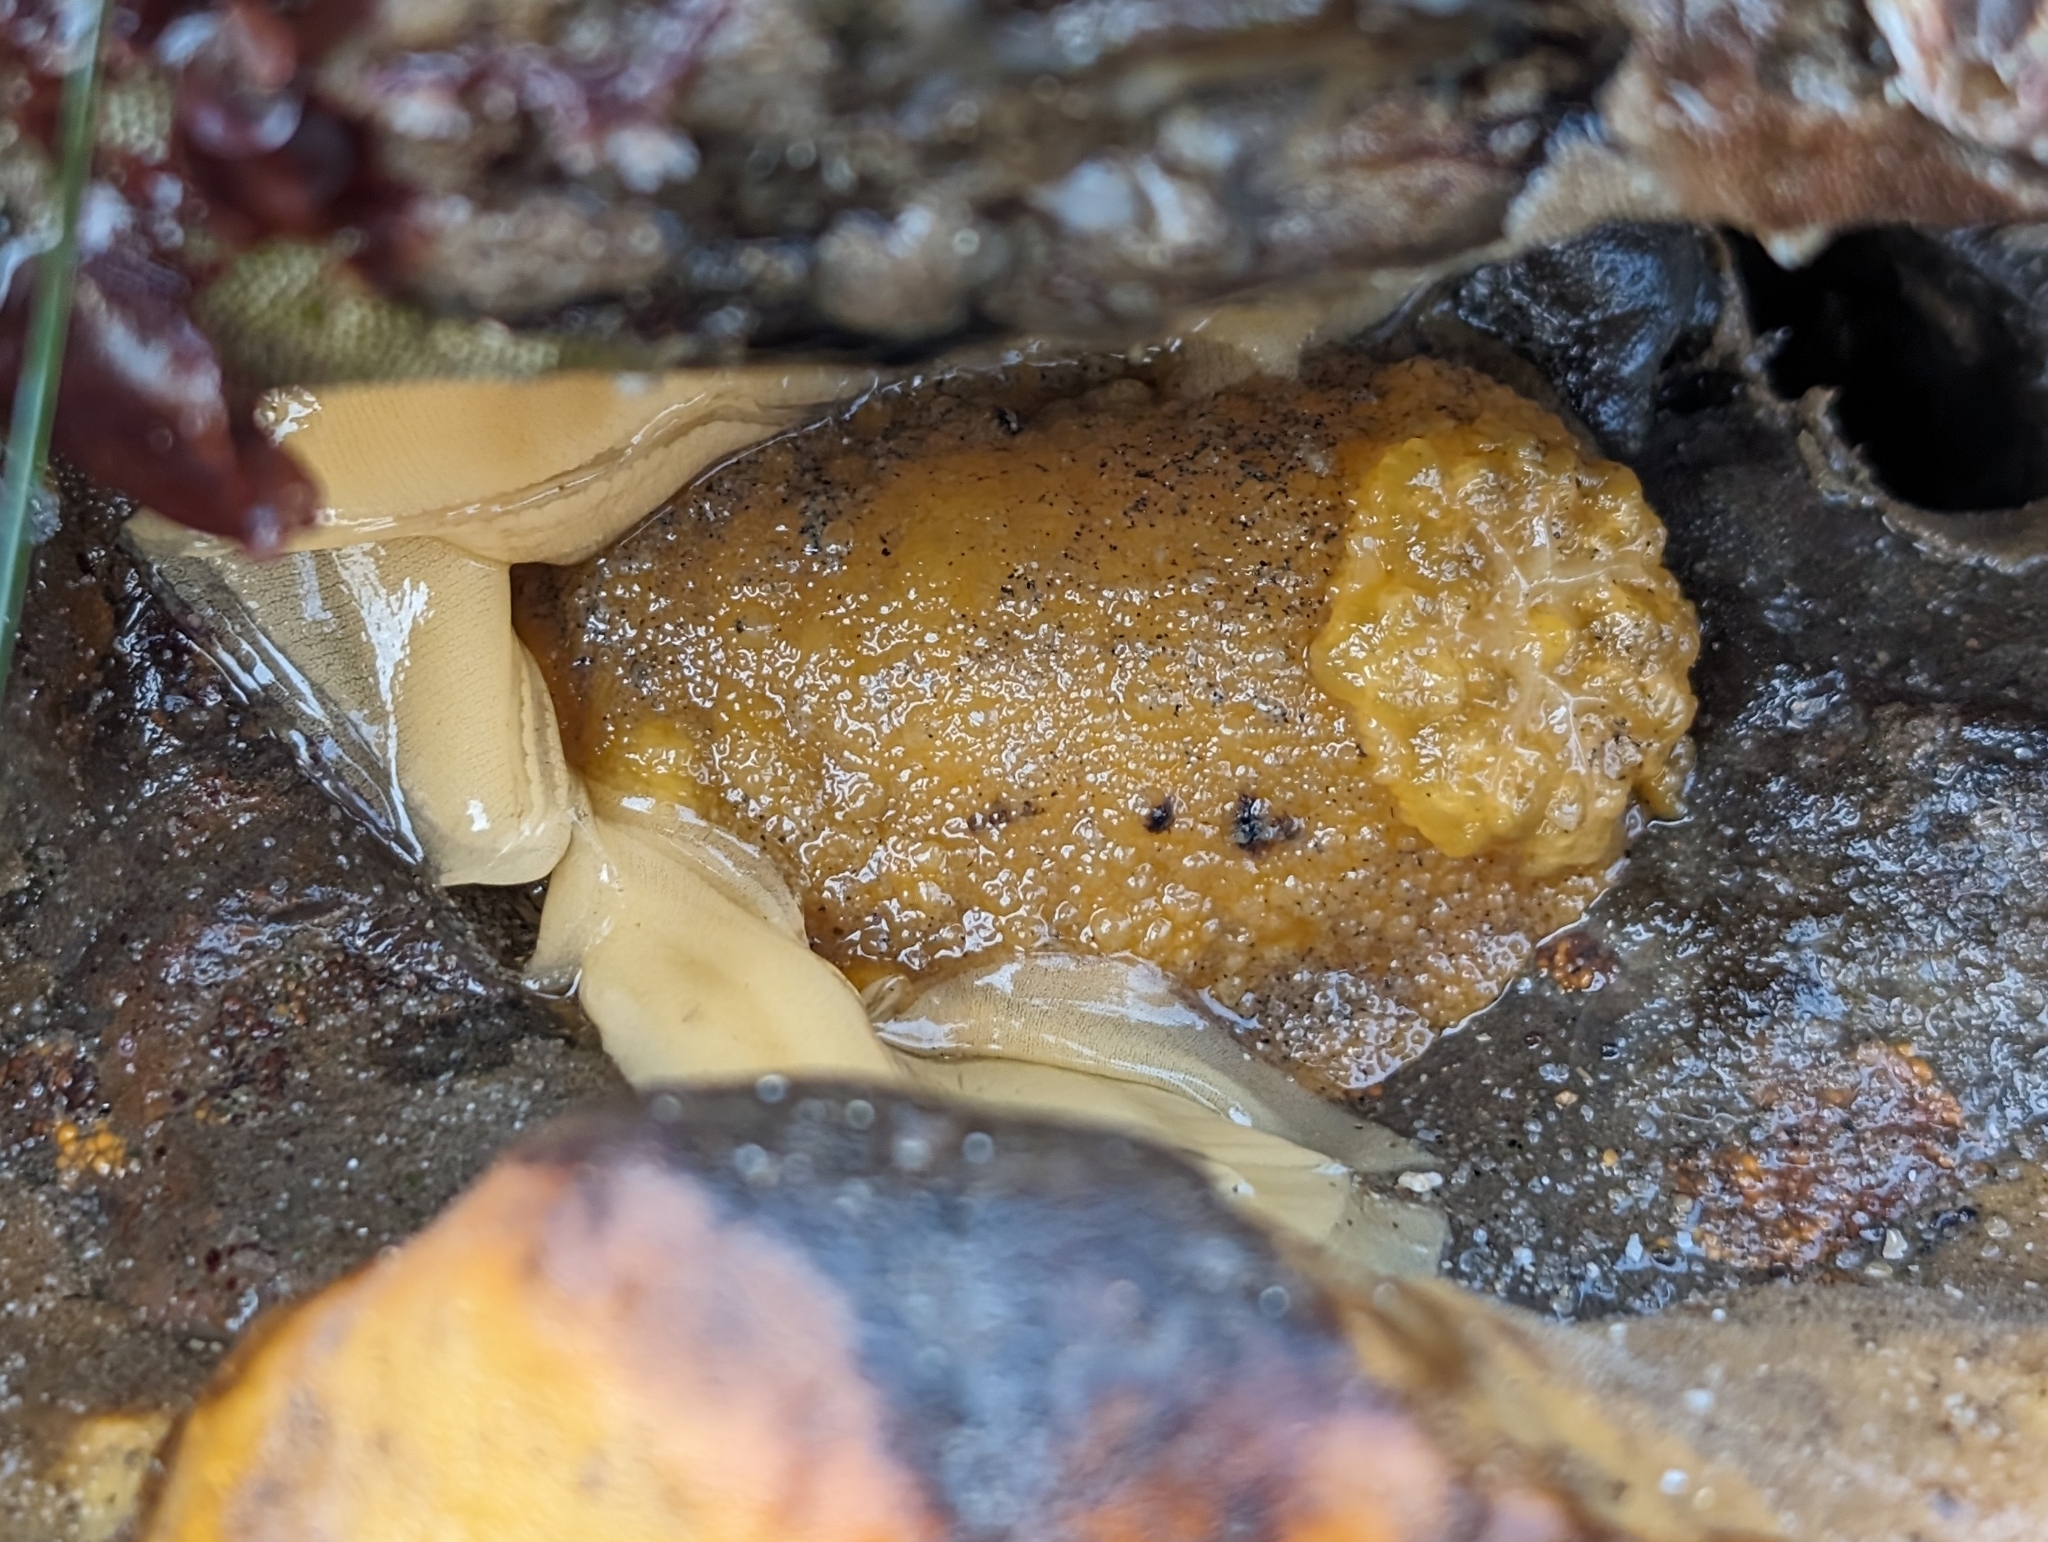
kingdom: Animalia
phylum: Mollusca
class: Gastropoda
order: Nudibranchia
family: Dorididae
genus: Doris
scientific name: Doris montereyensis
